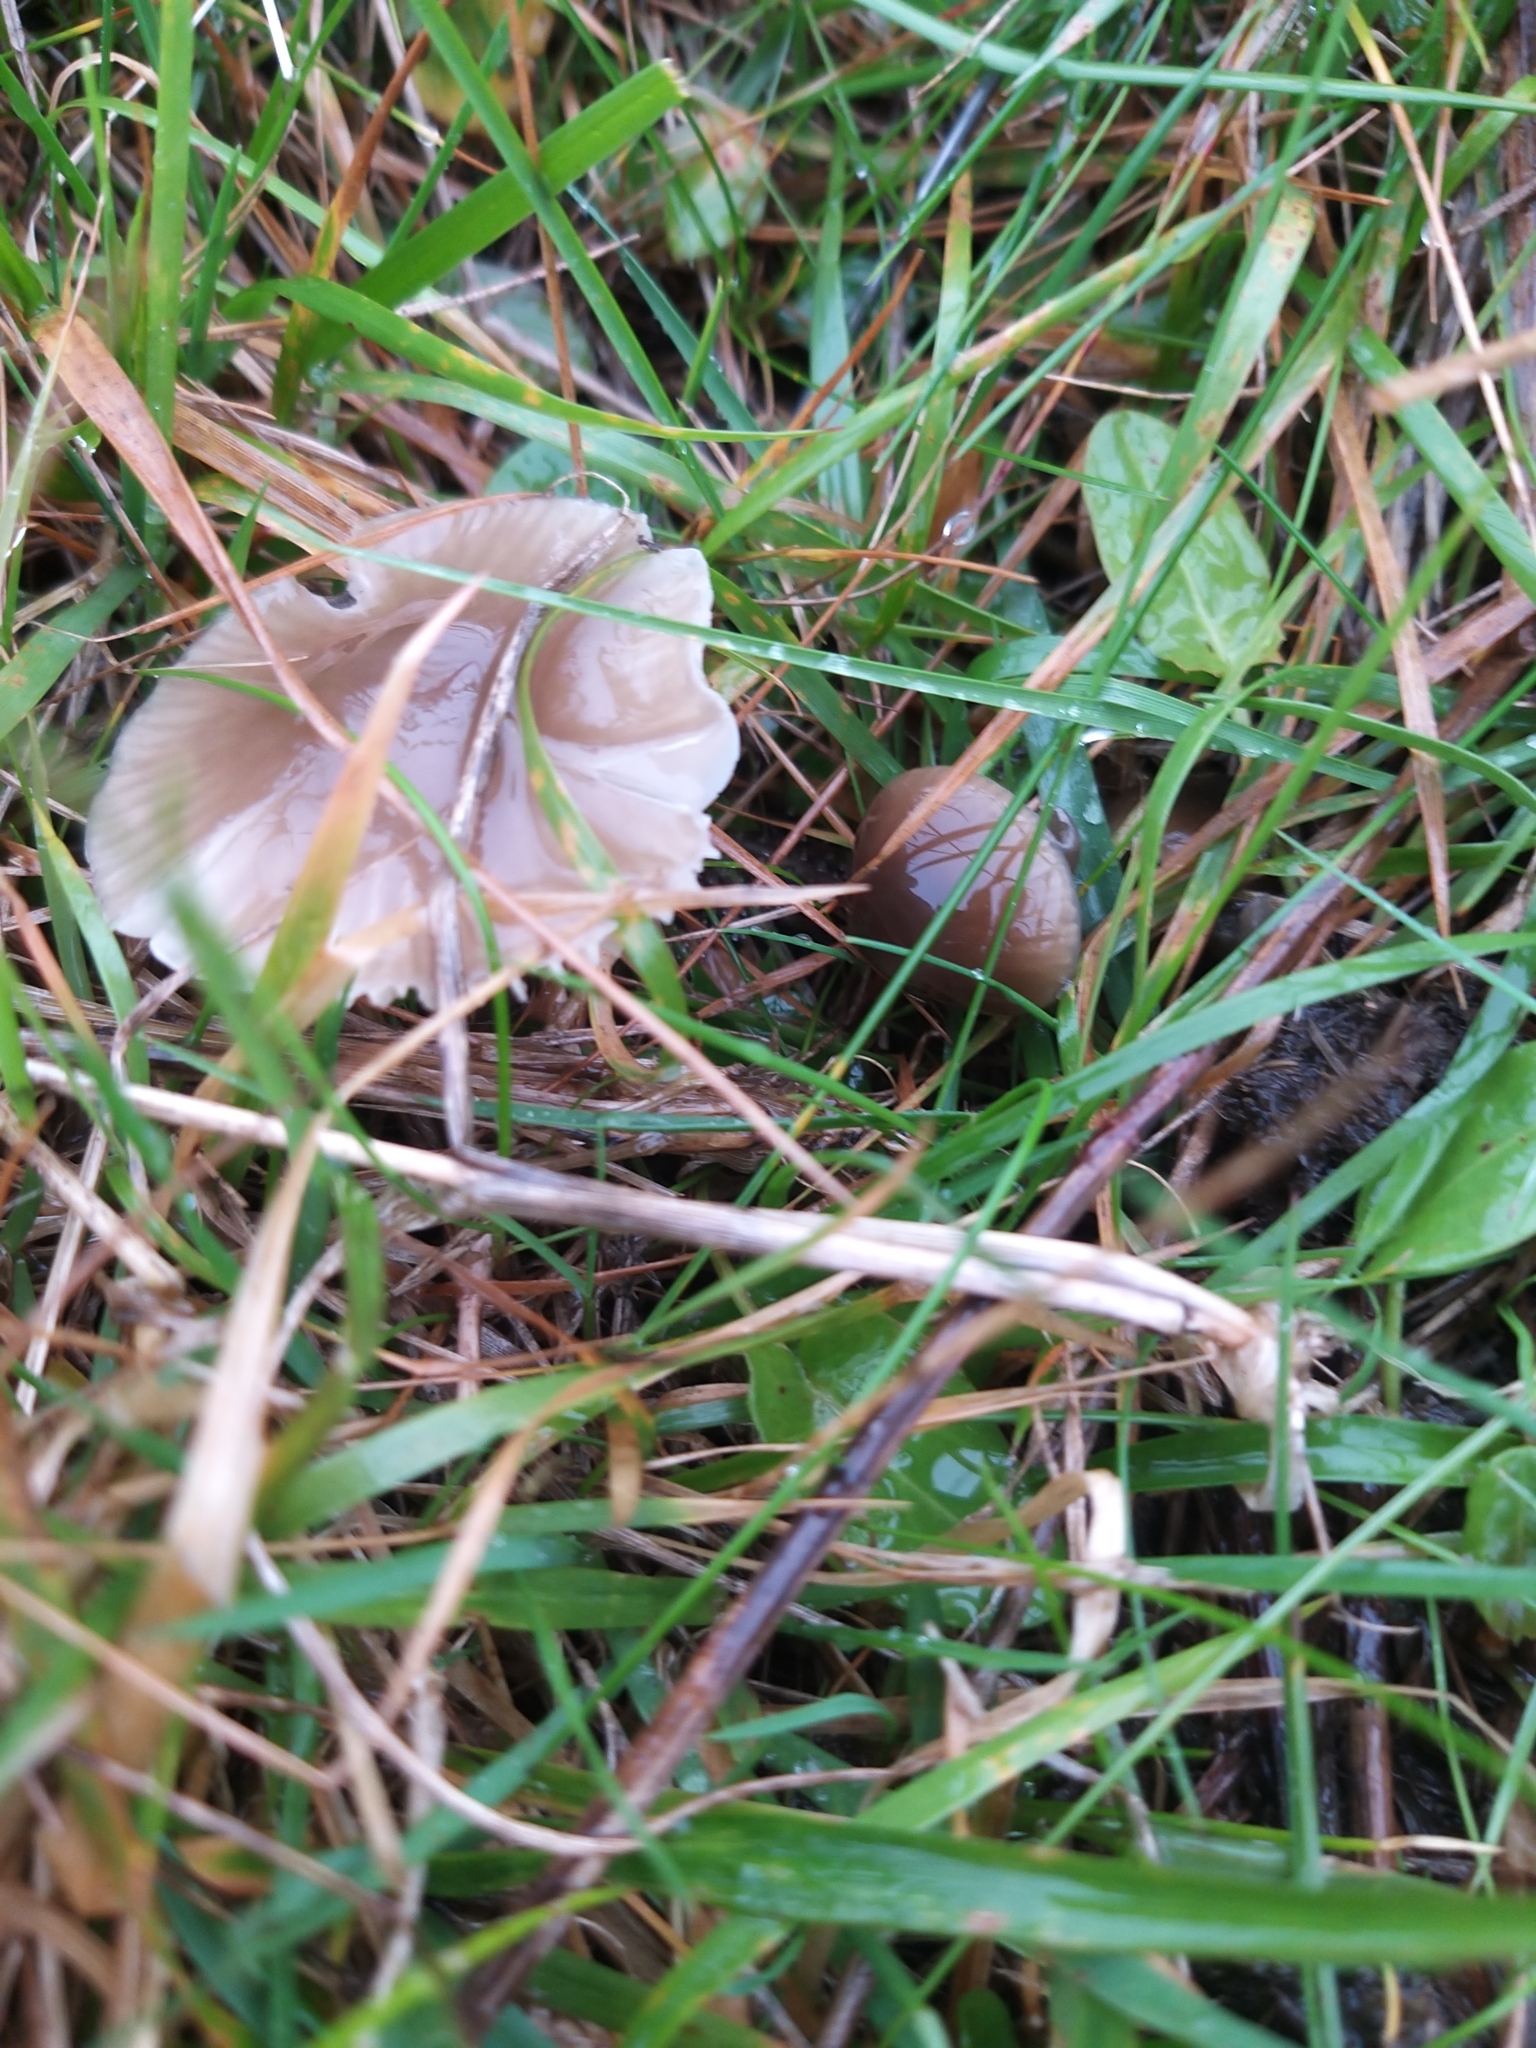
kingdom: Fungi
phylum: Basidiomycota
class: Agaricomycetes
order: Agaricales
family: Hygrophoraceae
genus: Gliophorus
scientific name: Gliophorus irrigatus
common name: Slimy waxcap
